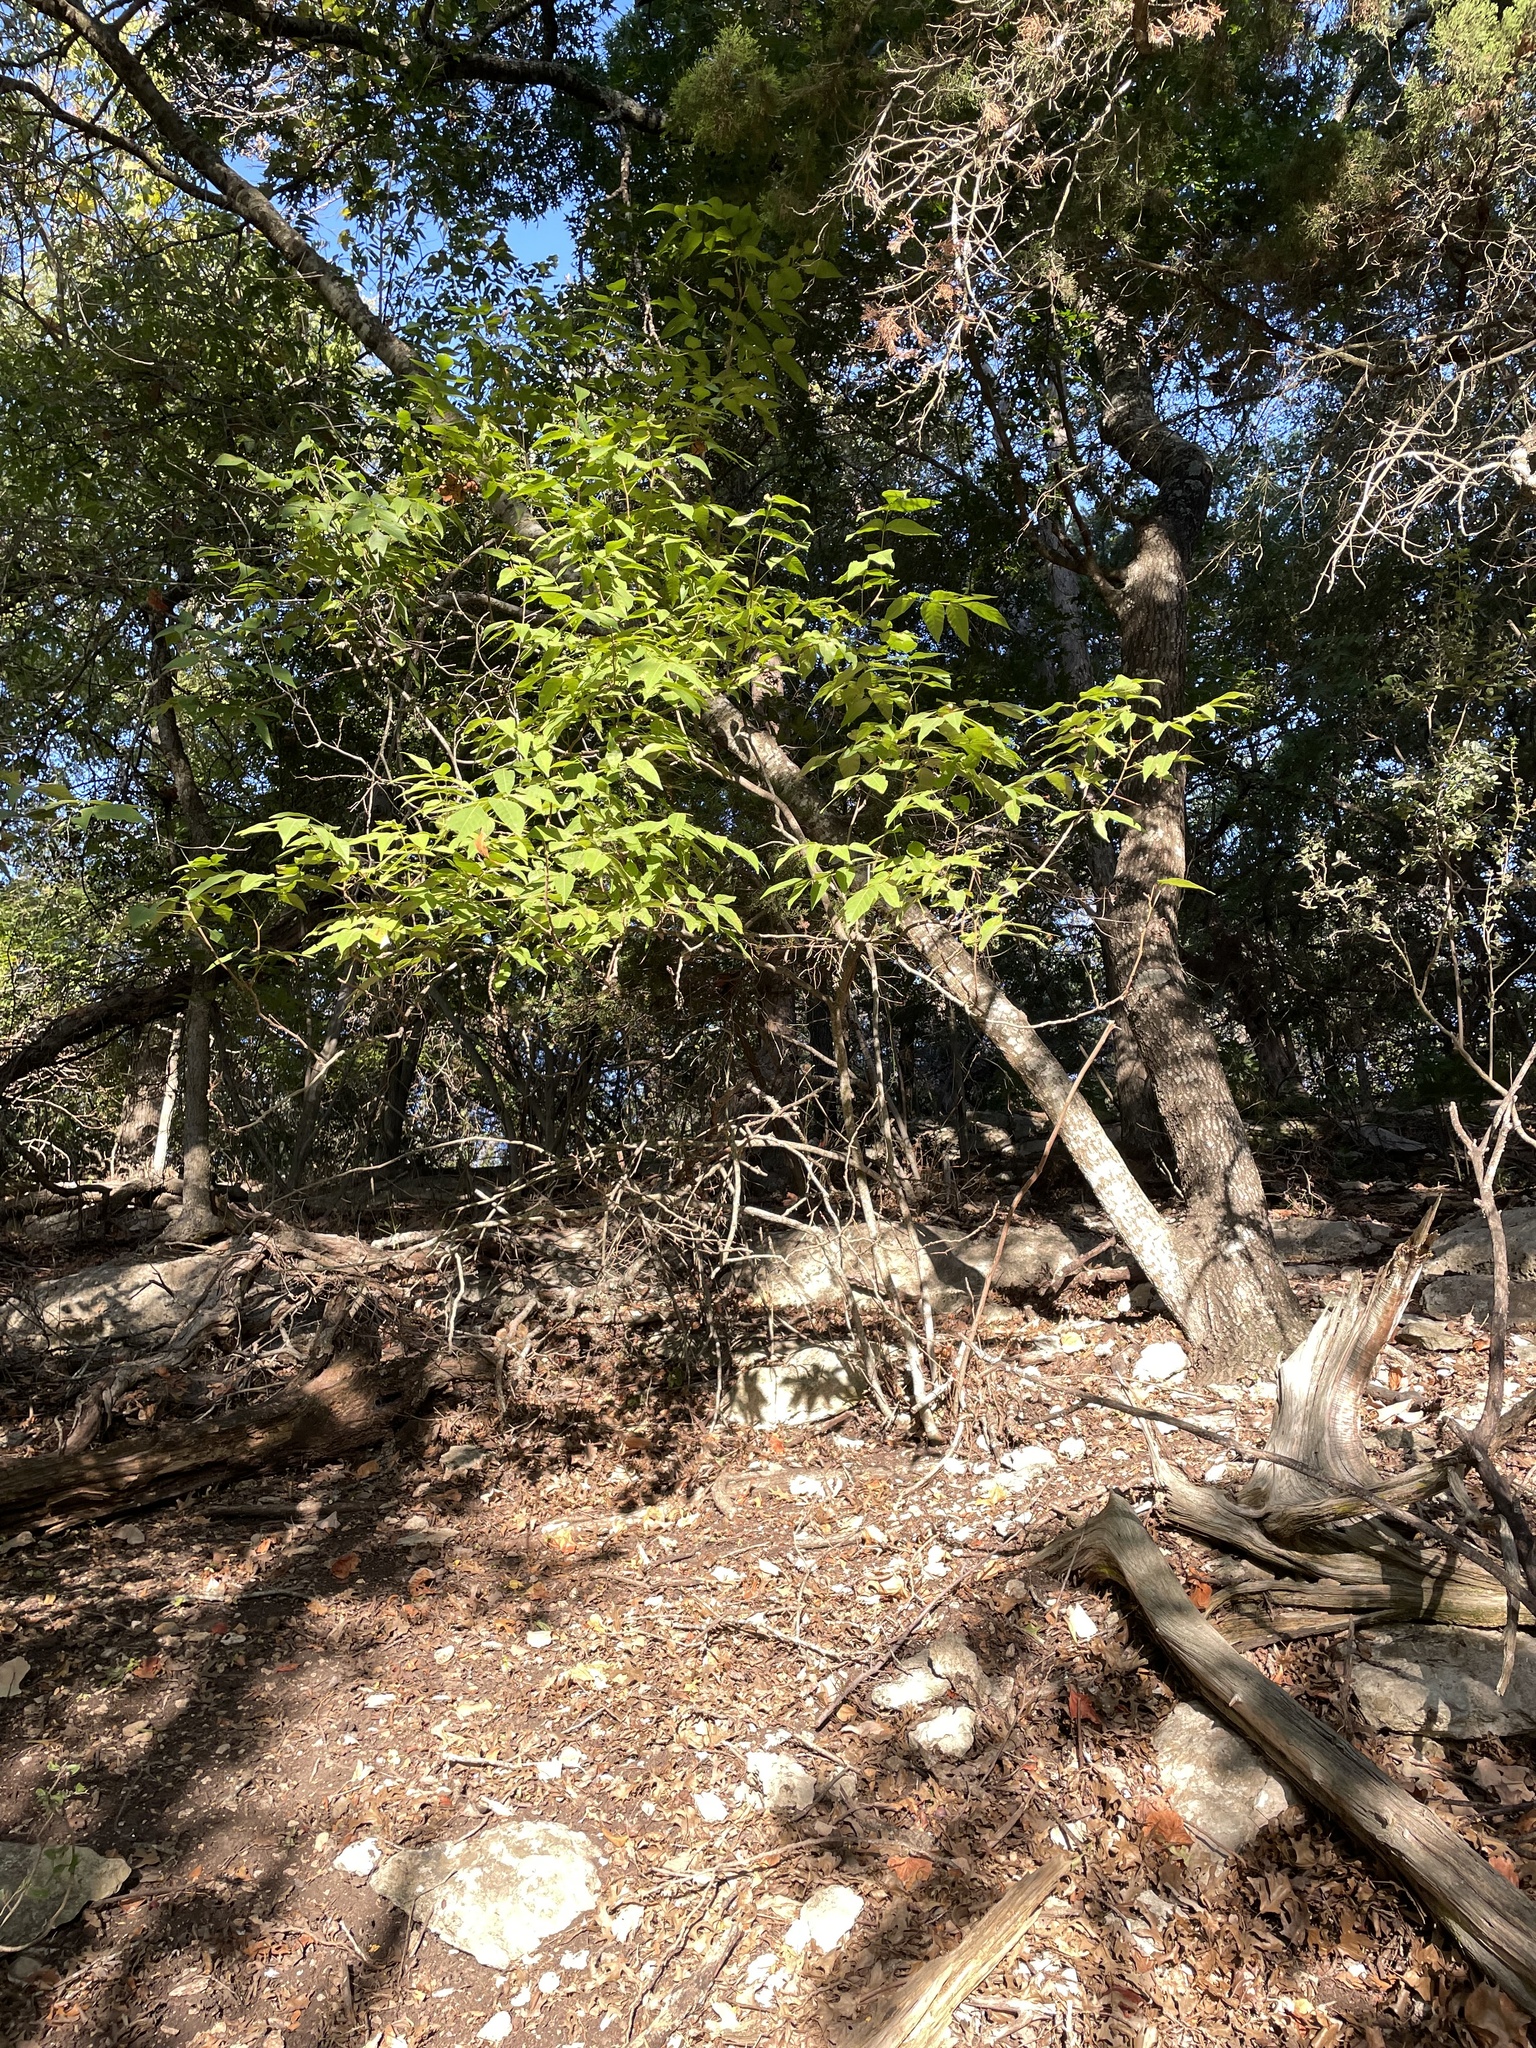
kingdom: Plantae
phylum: Tracheophyta
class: Magnoliopsida
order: Sapindales
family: Sapindaceae
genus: Ungnadia
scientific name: Ungnadia speciosa
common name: Texas-buckeye
